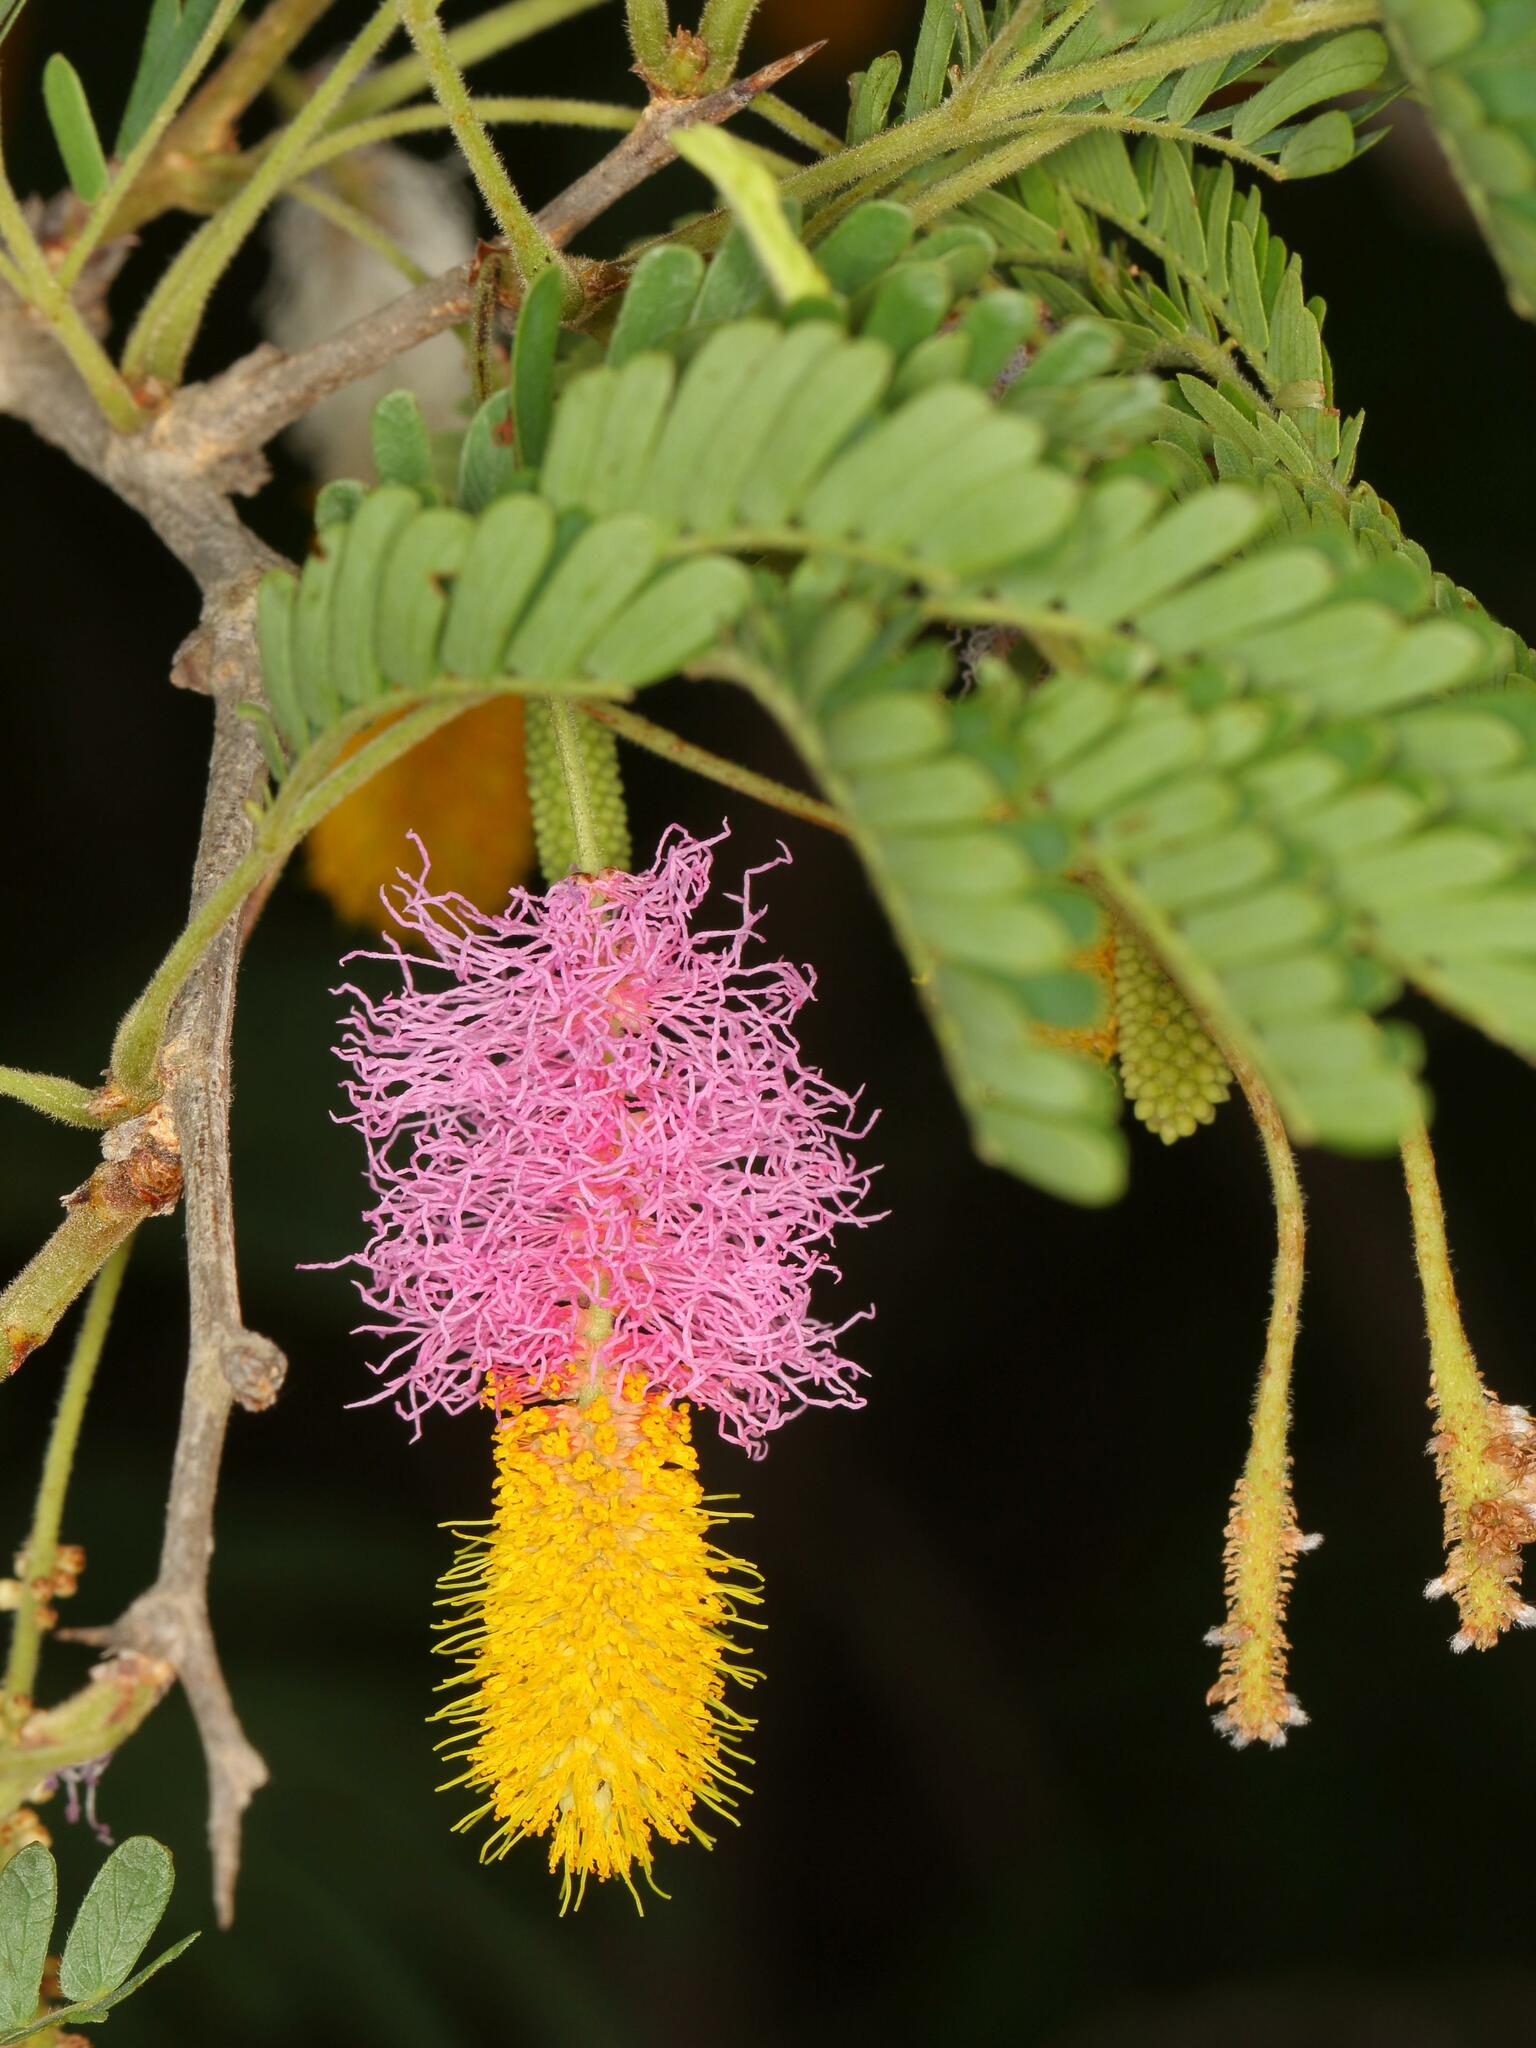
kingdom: Plantae
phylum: Tracheophyta
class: Magnoliopsida
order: Fabales
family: Fabaceae
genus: Dichrostachys
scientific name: Dichrostachys cinerea
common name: Sicklebush
